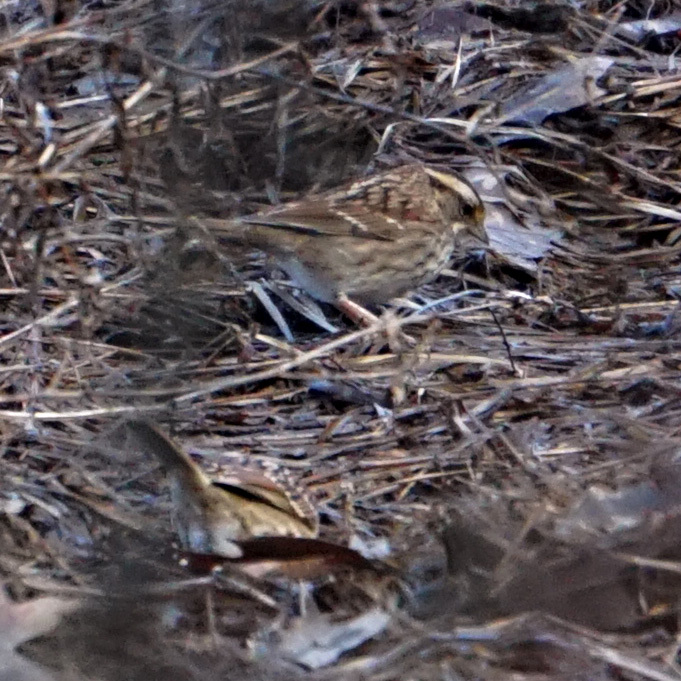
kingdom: Animalia
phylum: Chordata
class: Aves
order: Passeriformes
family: Passerellidae
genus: Zonotrichia
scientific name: Zonotrichia albicollis
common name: White-throated sparrow
